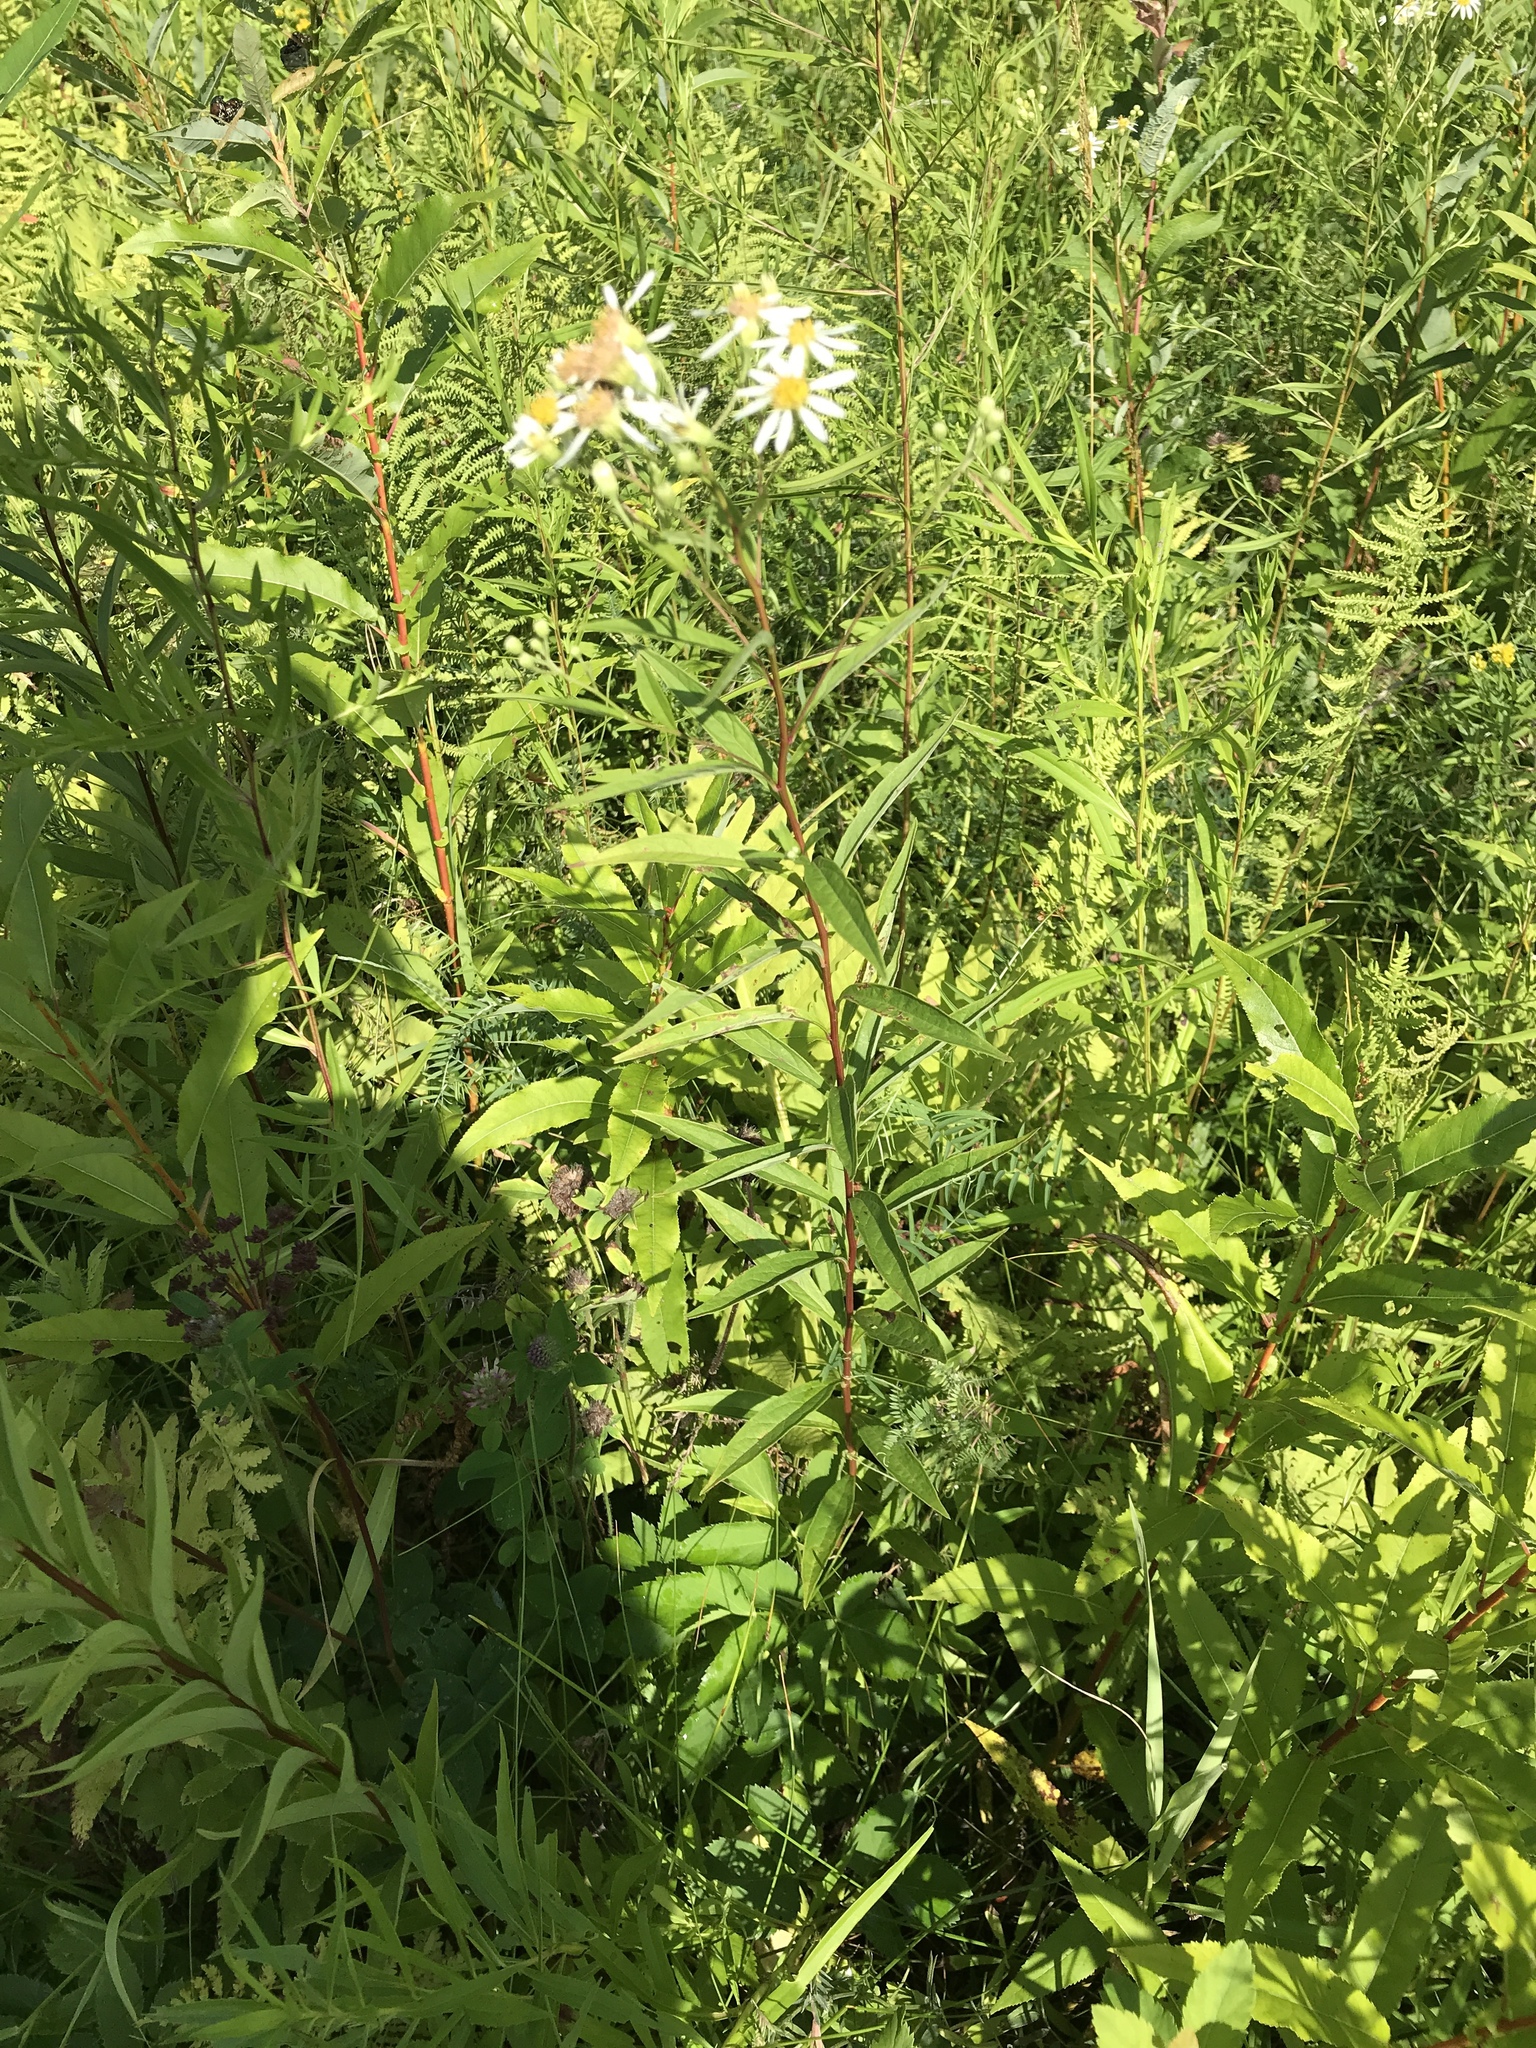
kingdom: Plantae
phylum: Tracheophyta
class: Magnoliopsida
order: Asterales
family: Asteraceae
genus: Doellingeria
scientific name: Doellingeria umbellata
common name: Flat-top white aster
